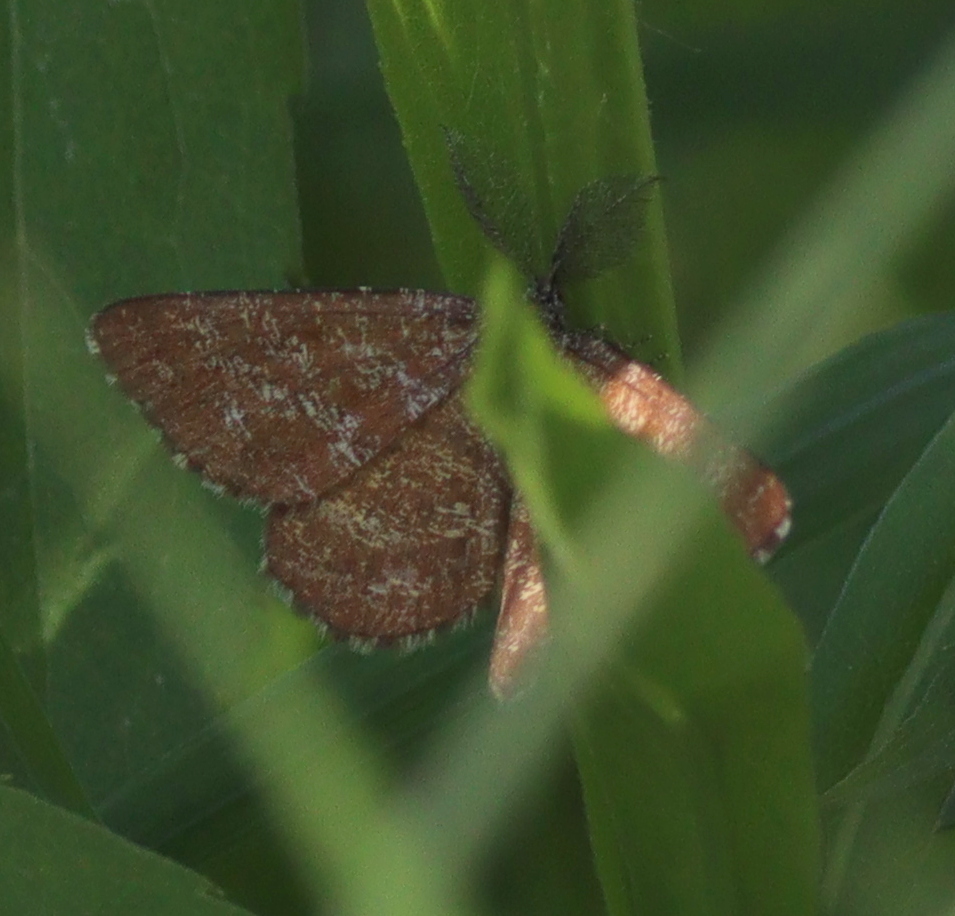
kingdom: Animalia
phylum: Arthropoda
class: Insecta
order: Lepidoptera
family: Geometridae
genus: Ematurga
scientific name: Ematurga atomaria
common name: Common heath
